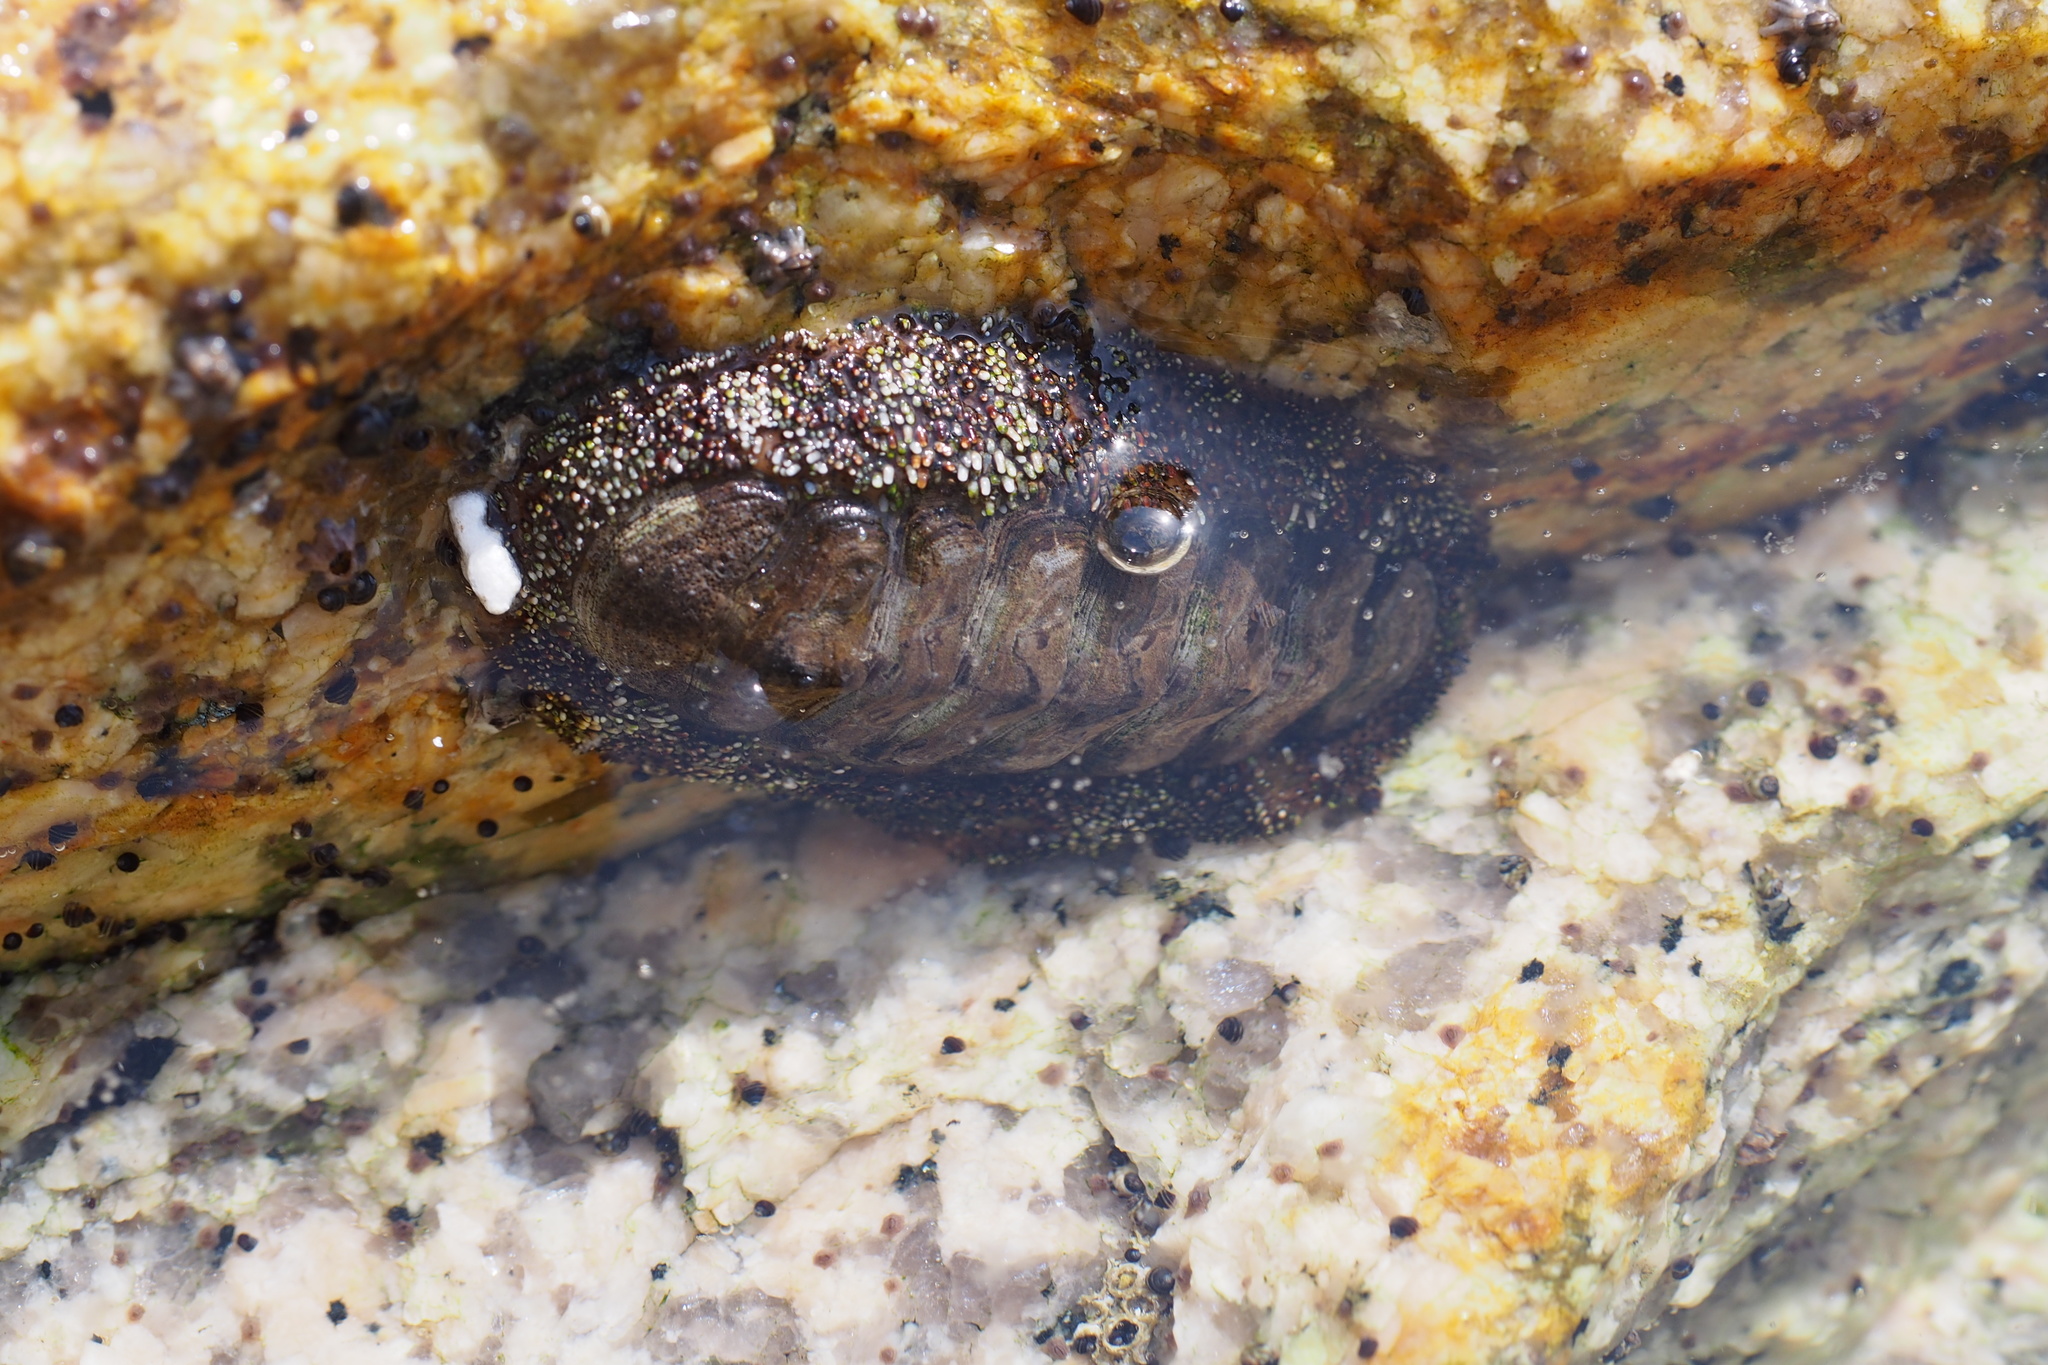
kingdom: Animalia
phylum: Mollusca
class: Polyplacophora
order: Chitonida
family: Chitonidae
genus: Liolophura
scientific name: Liolophura japonica
